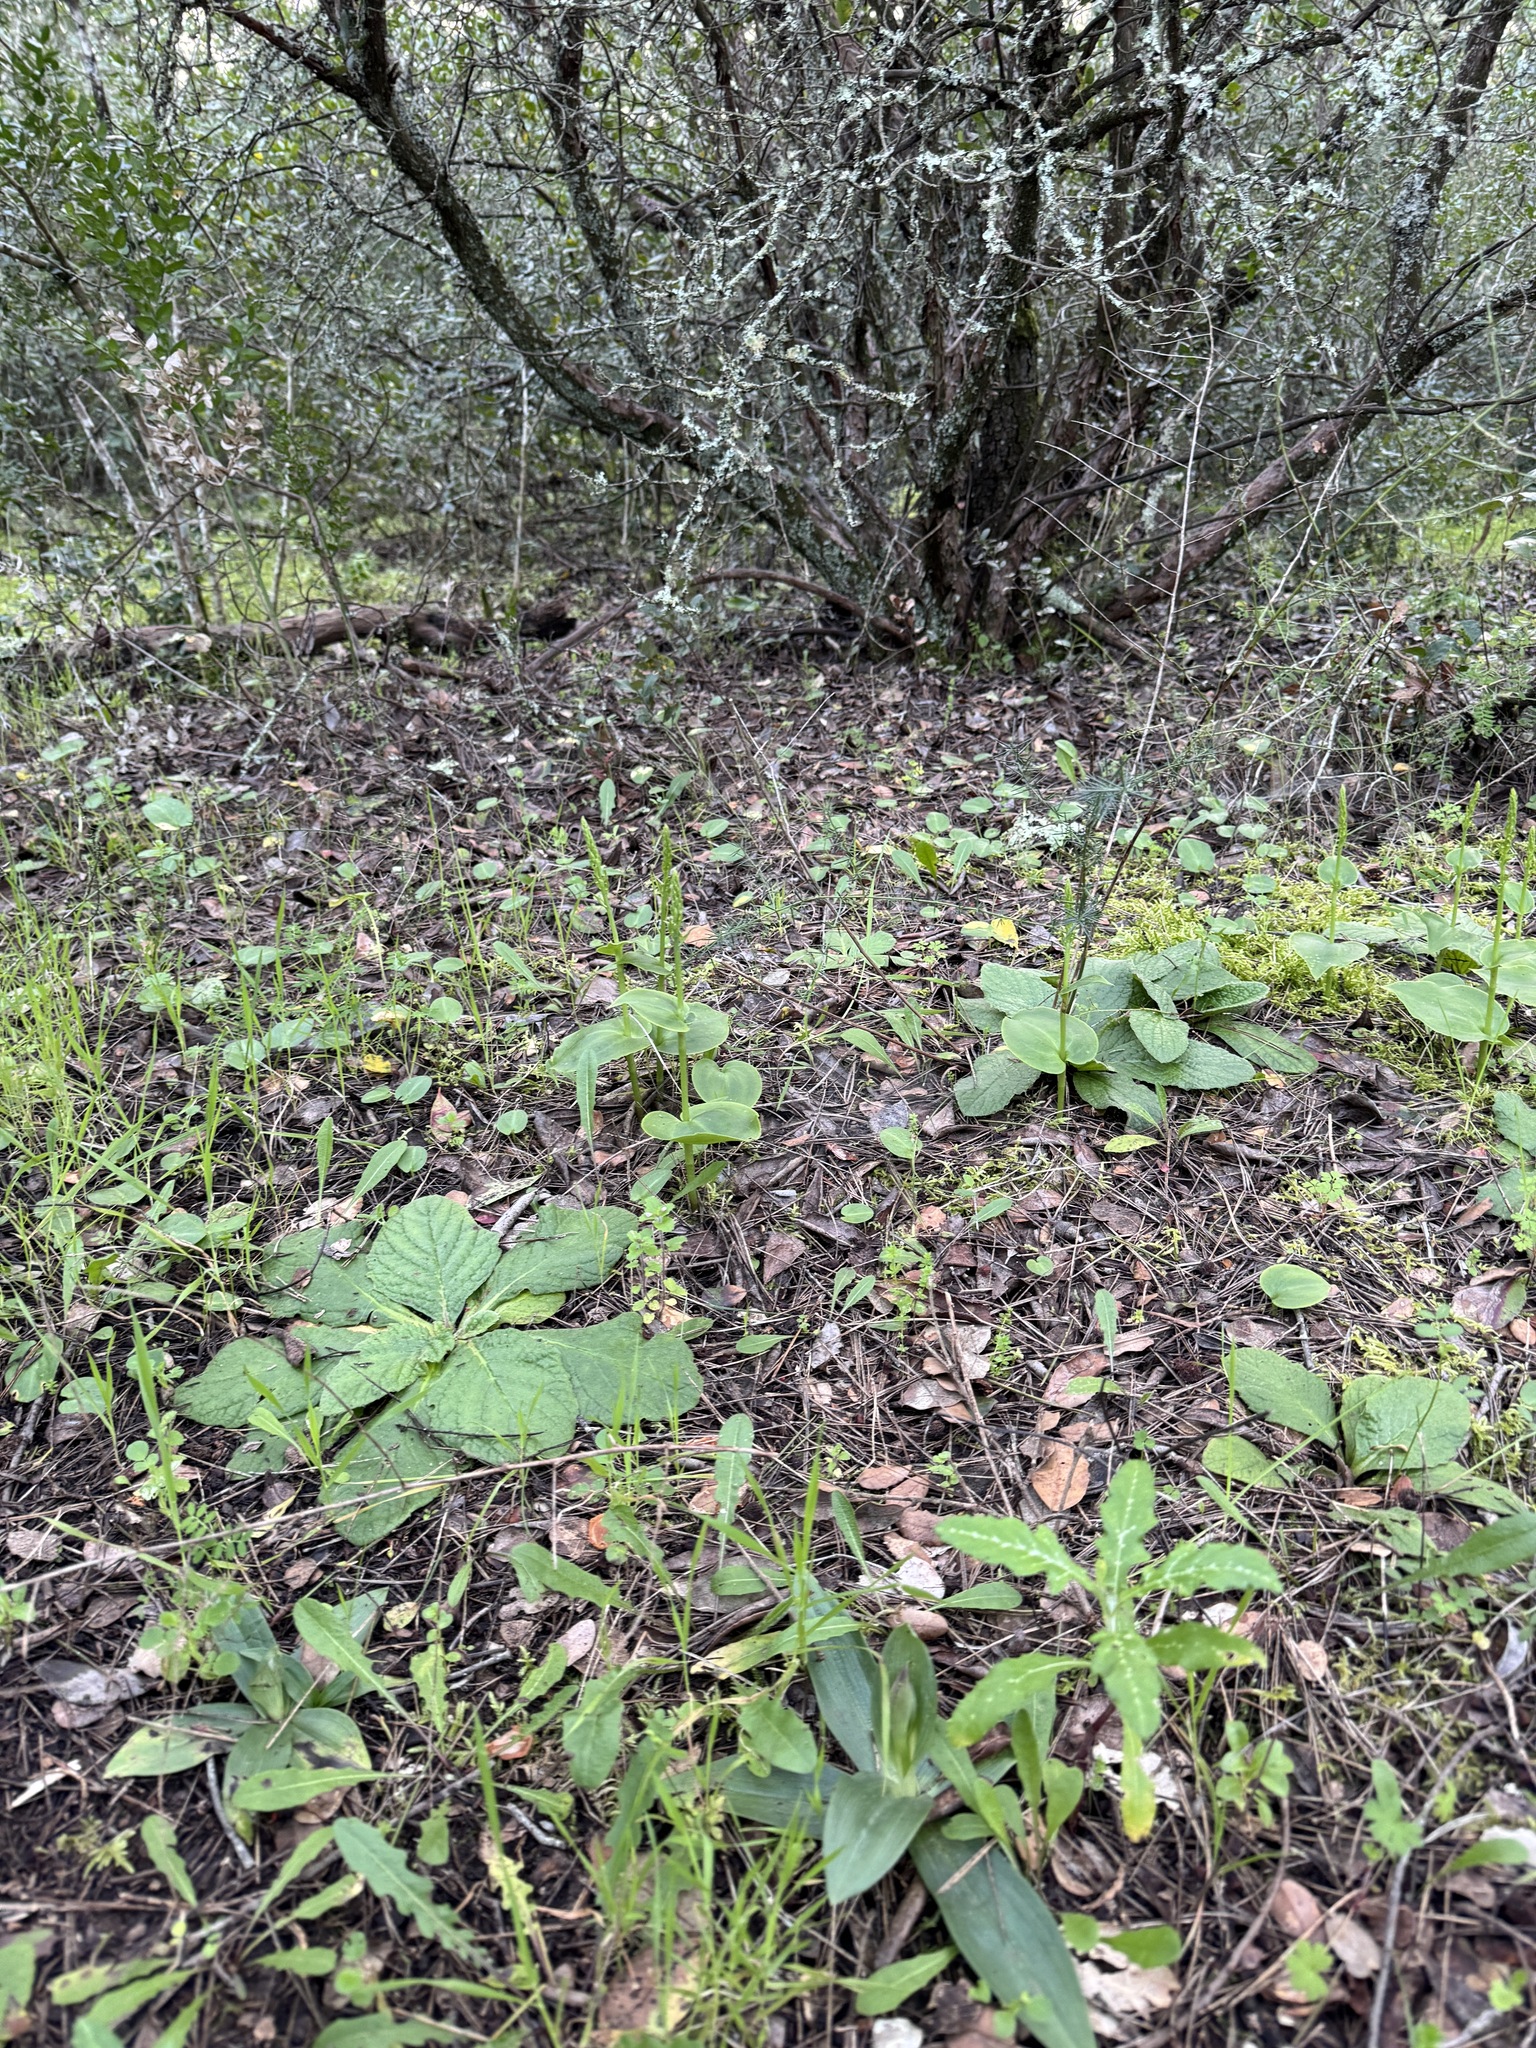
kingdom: Plantae
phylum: Tracheophyta
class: Liliopsida
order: Asparagales
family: Orchidaceae
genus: Gennaria
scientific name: Gennaria diphylla
